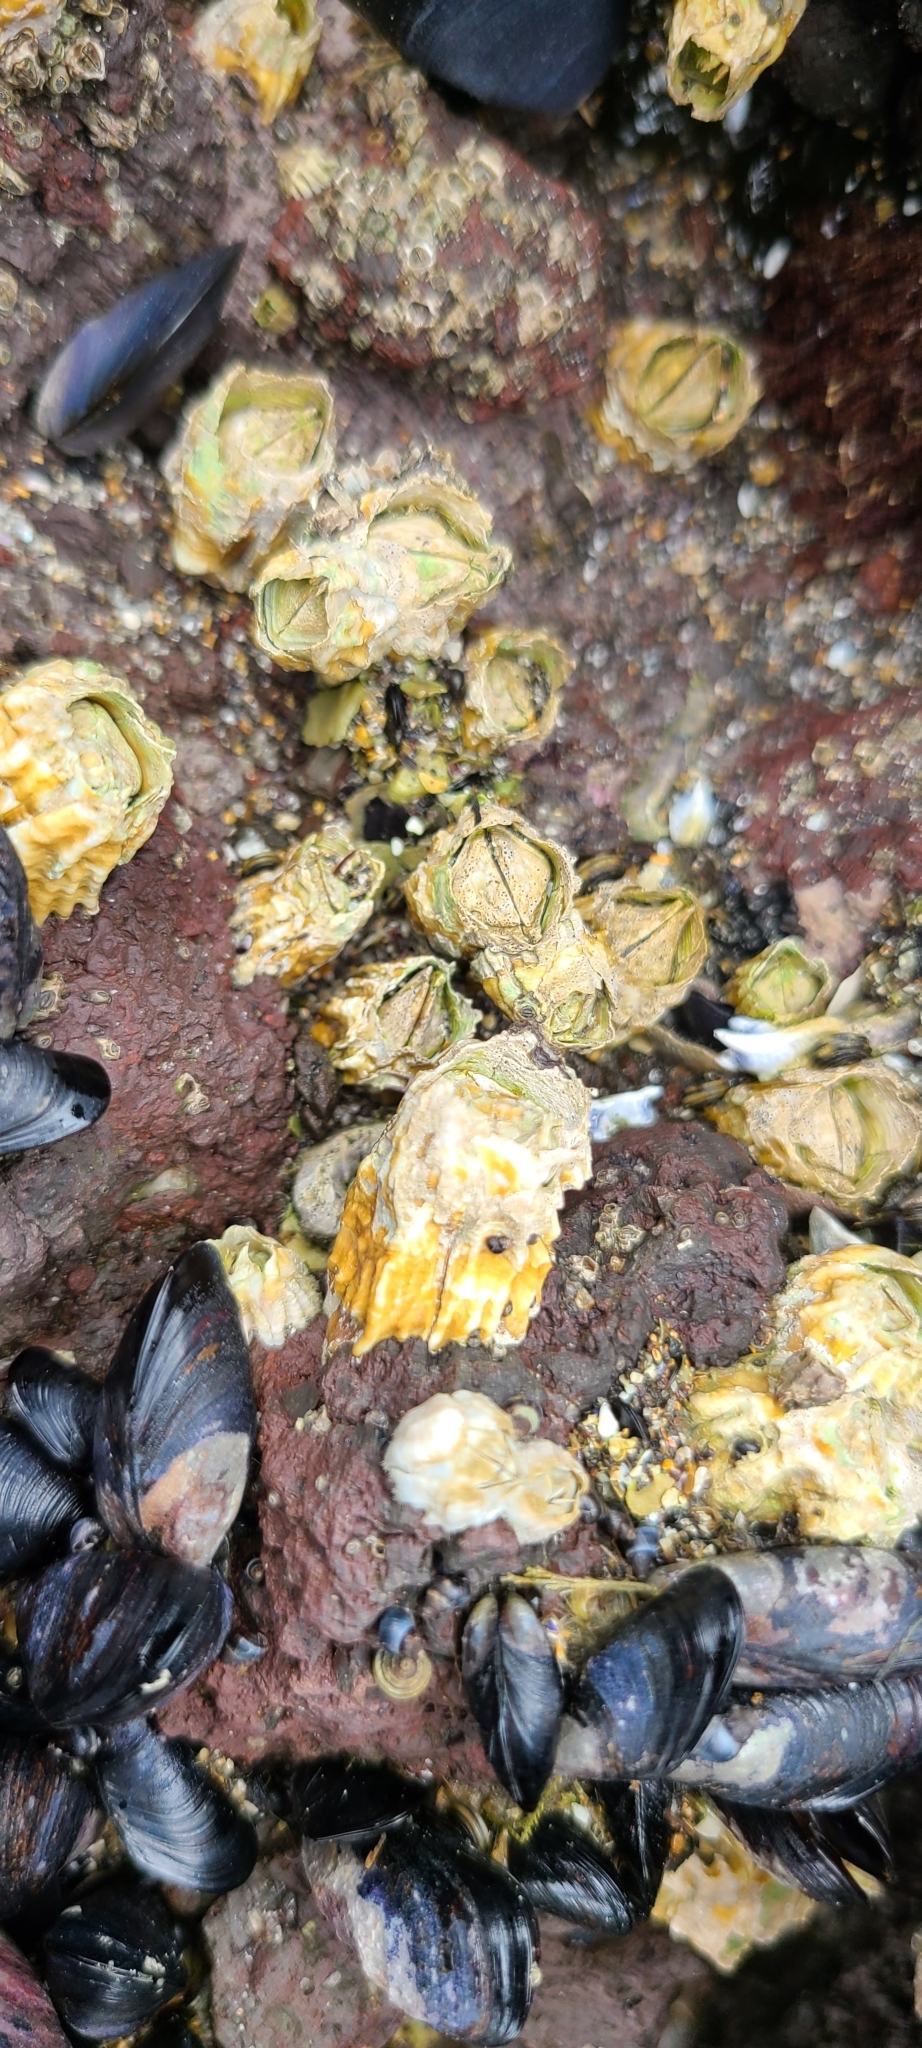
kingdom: Animalia
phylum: Arthropoda
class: Maxillopoda
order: Sessilia
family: Tetraclitidae
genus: Epopella
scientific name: Epopella plicata
